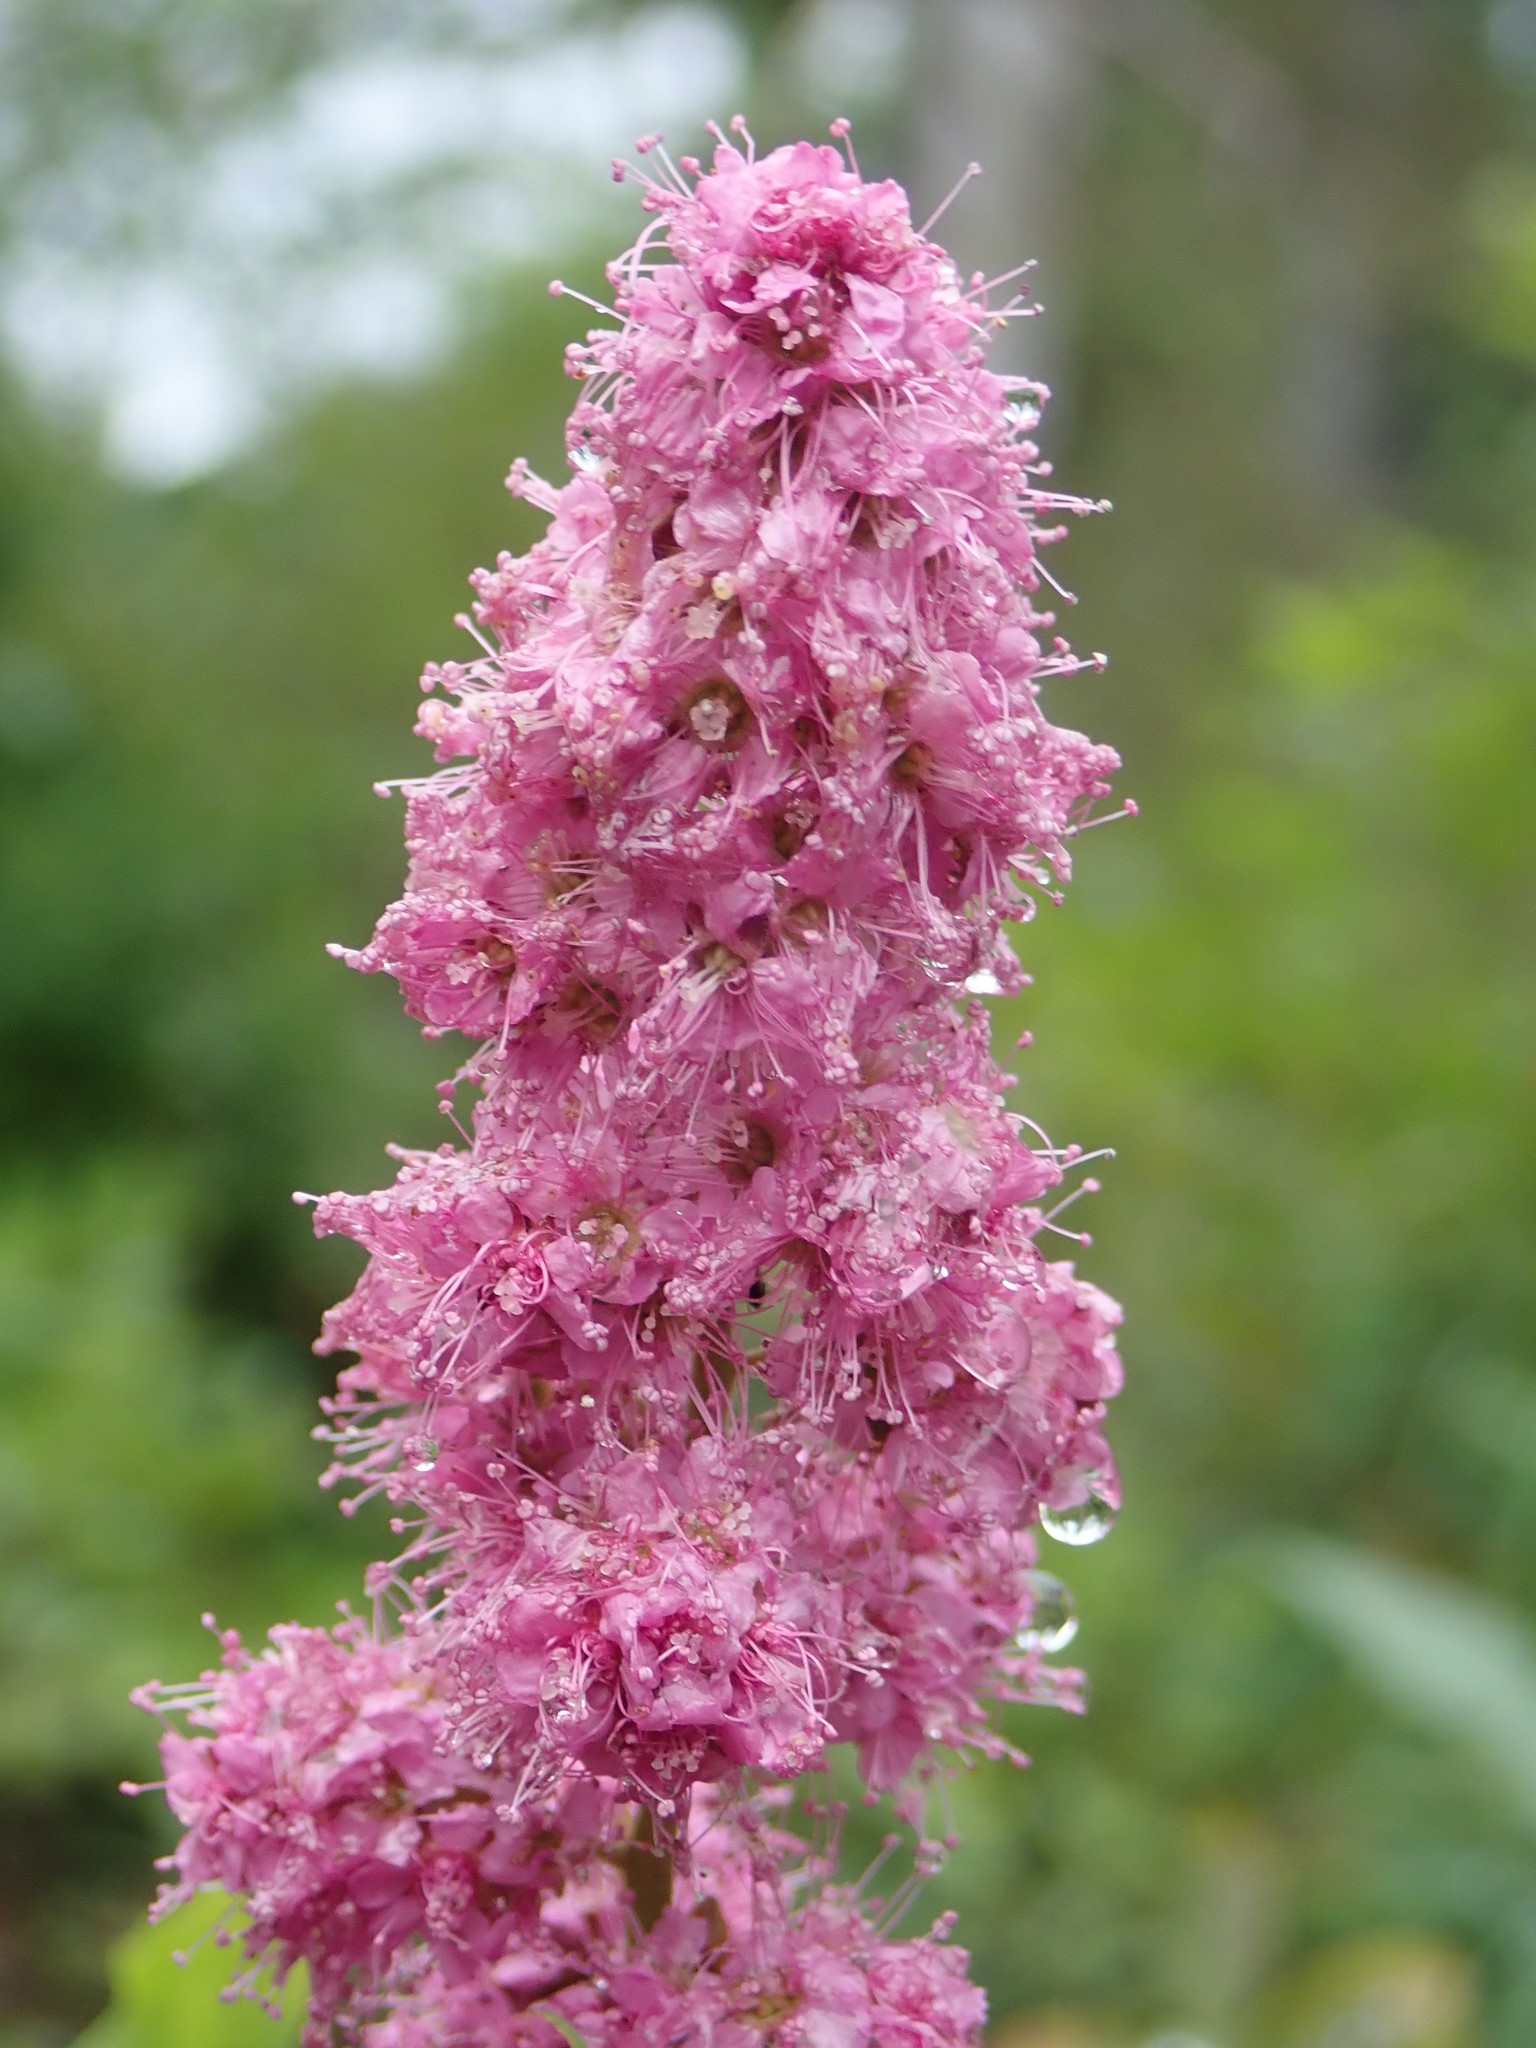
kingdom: Plantae
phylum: Tracheophyta
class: Magnoliopsida
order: Rosales
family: Rosaceae
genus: Spiraea
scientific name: Spiraea douglasii
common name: Steeplebush
